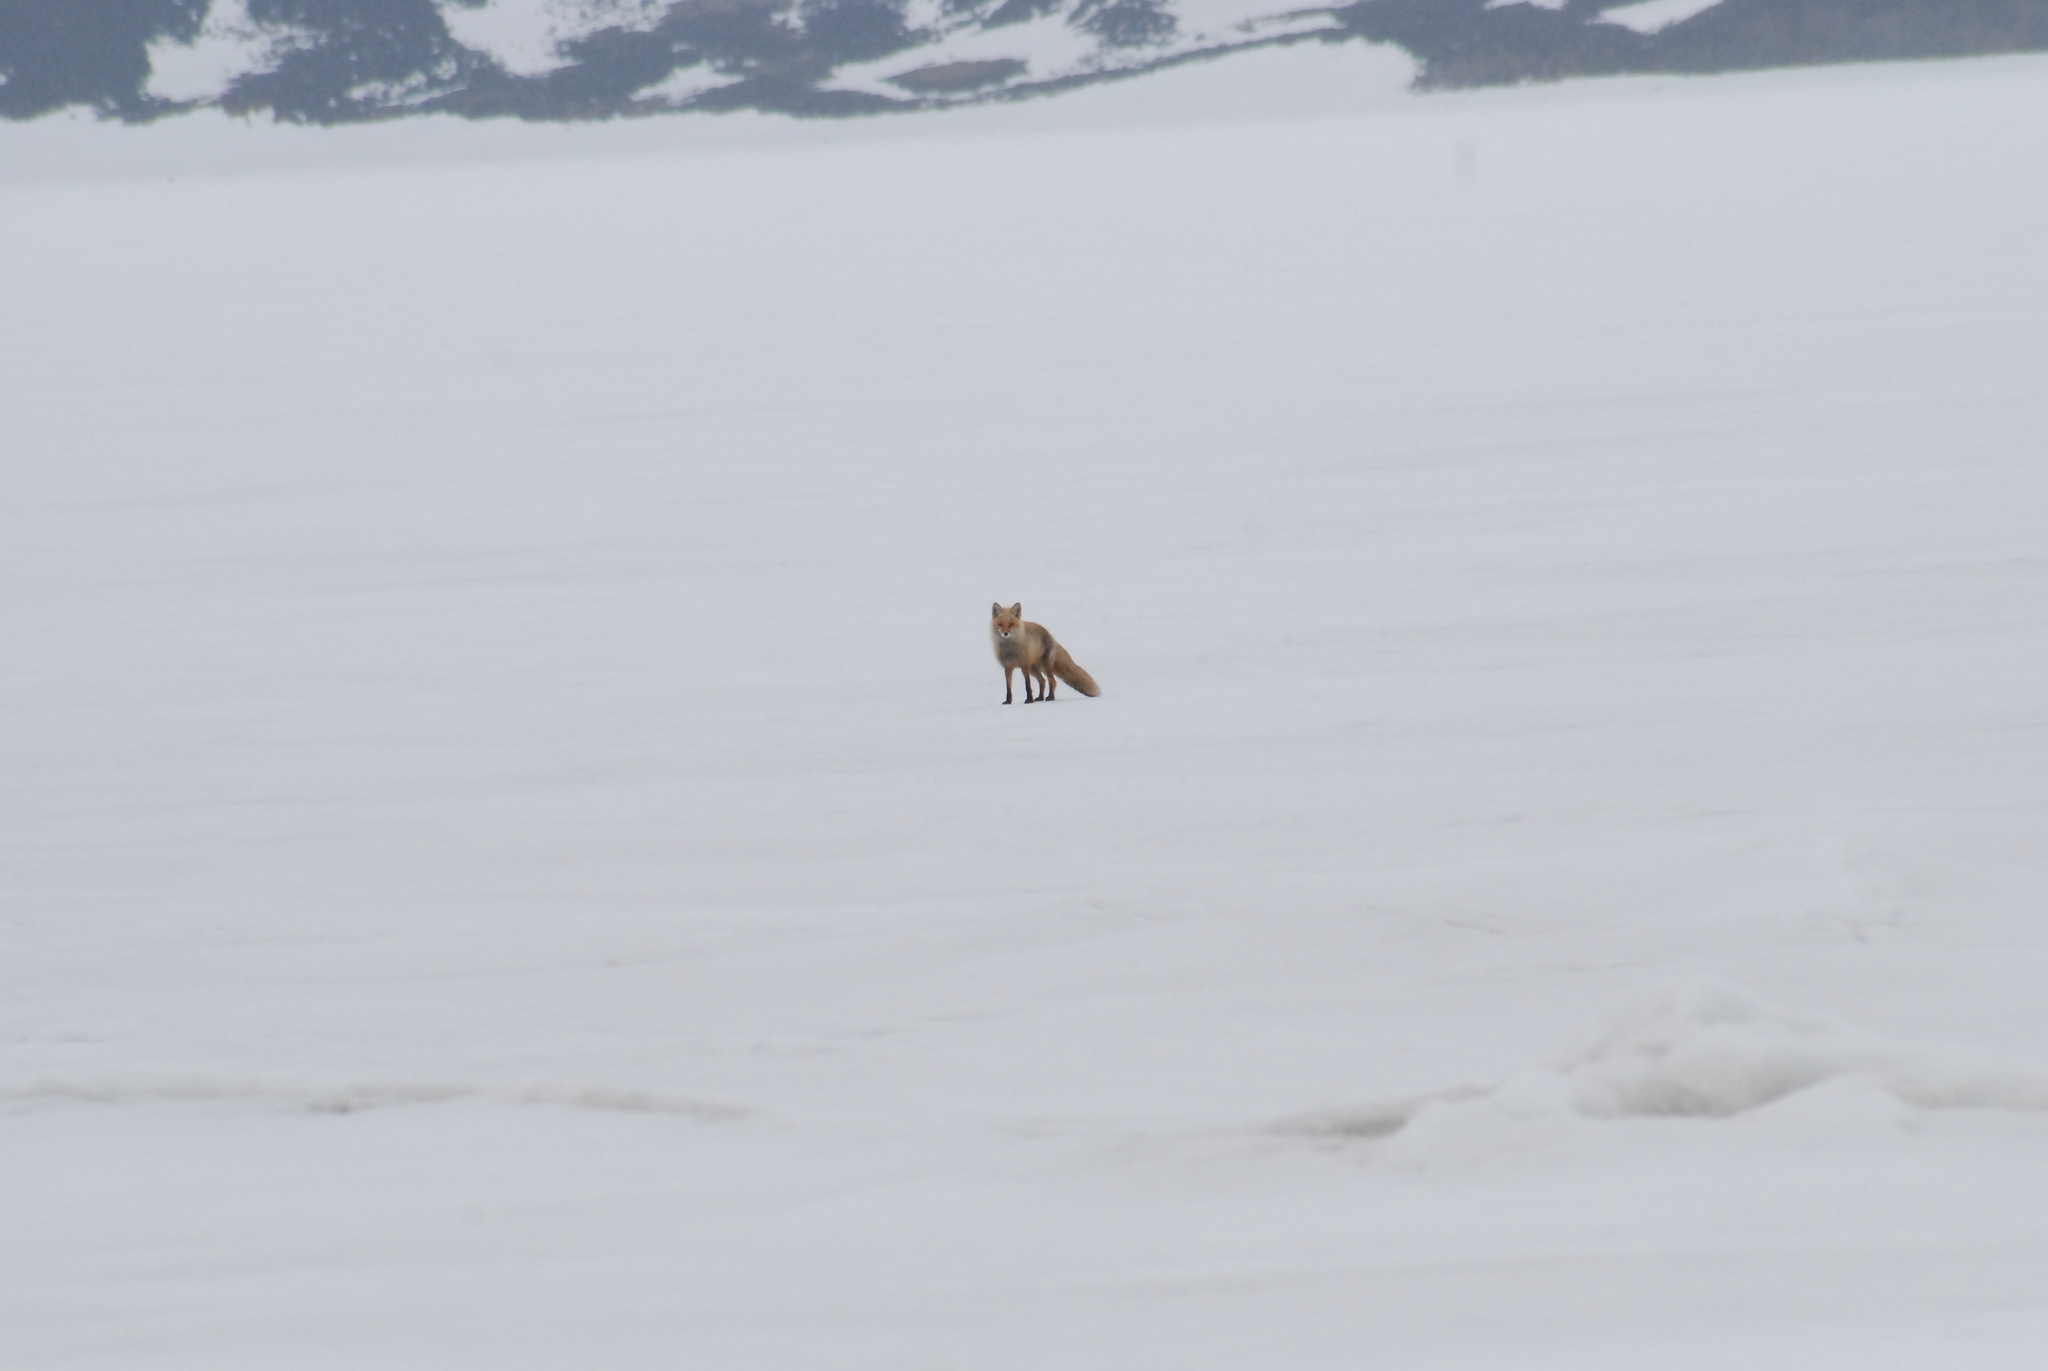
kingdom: Animalia
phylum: Chordata
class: Mammalia
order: Carnivora
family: Canidae
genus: Vulpes
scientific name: Vulpes vulpes
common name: Red fox
